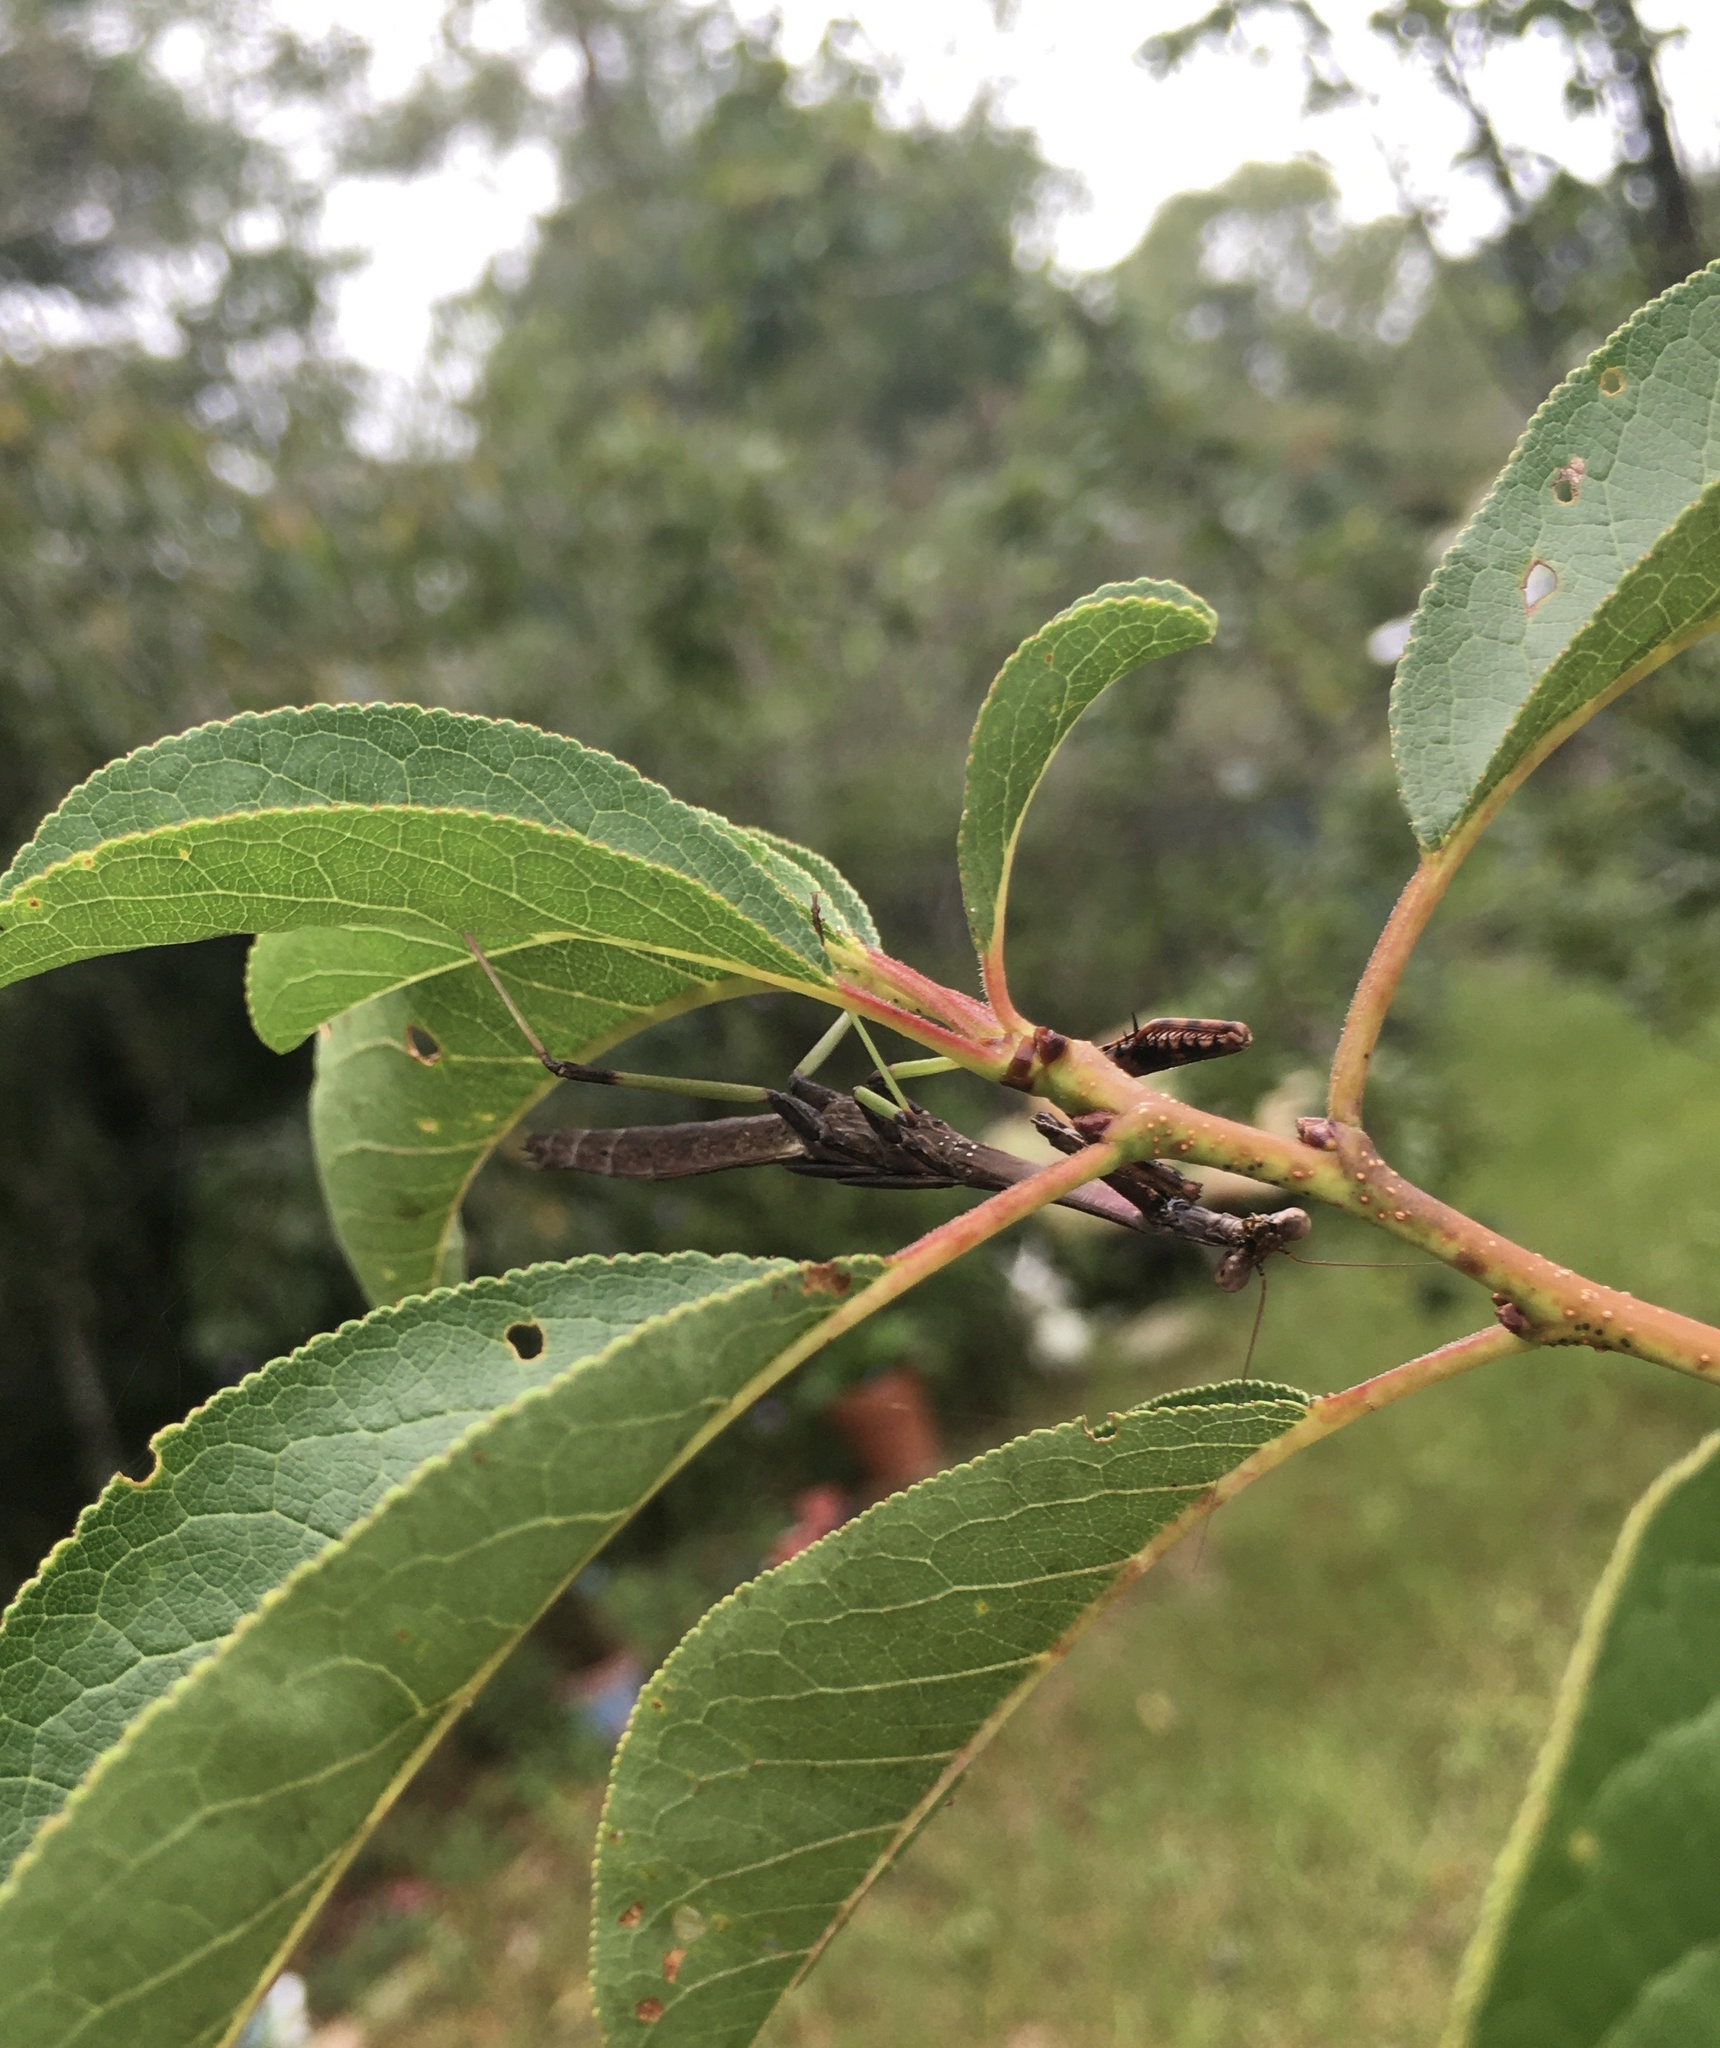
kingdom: Animalia
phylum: Arthropoda
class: Insecta
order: Mantodea
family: Mantidae
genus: Stagmomantis
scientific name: Stagmomantis carolina
